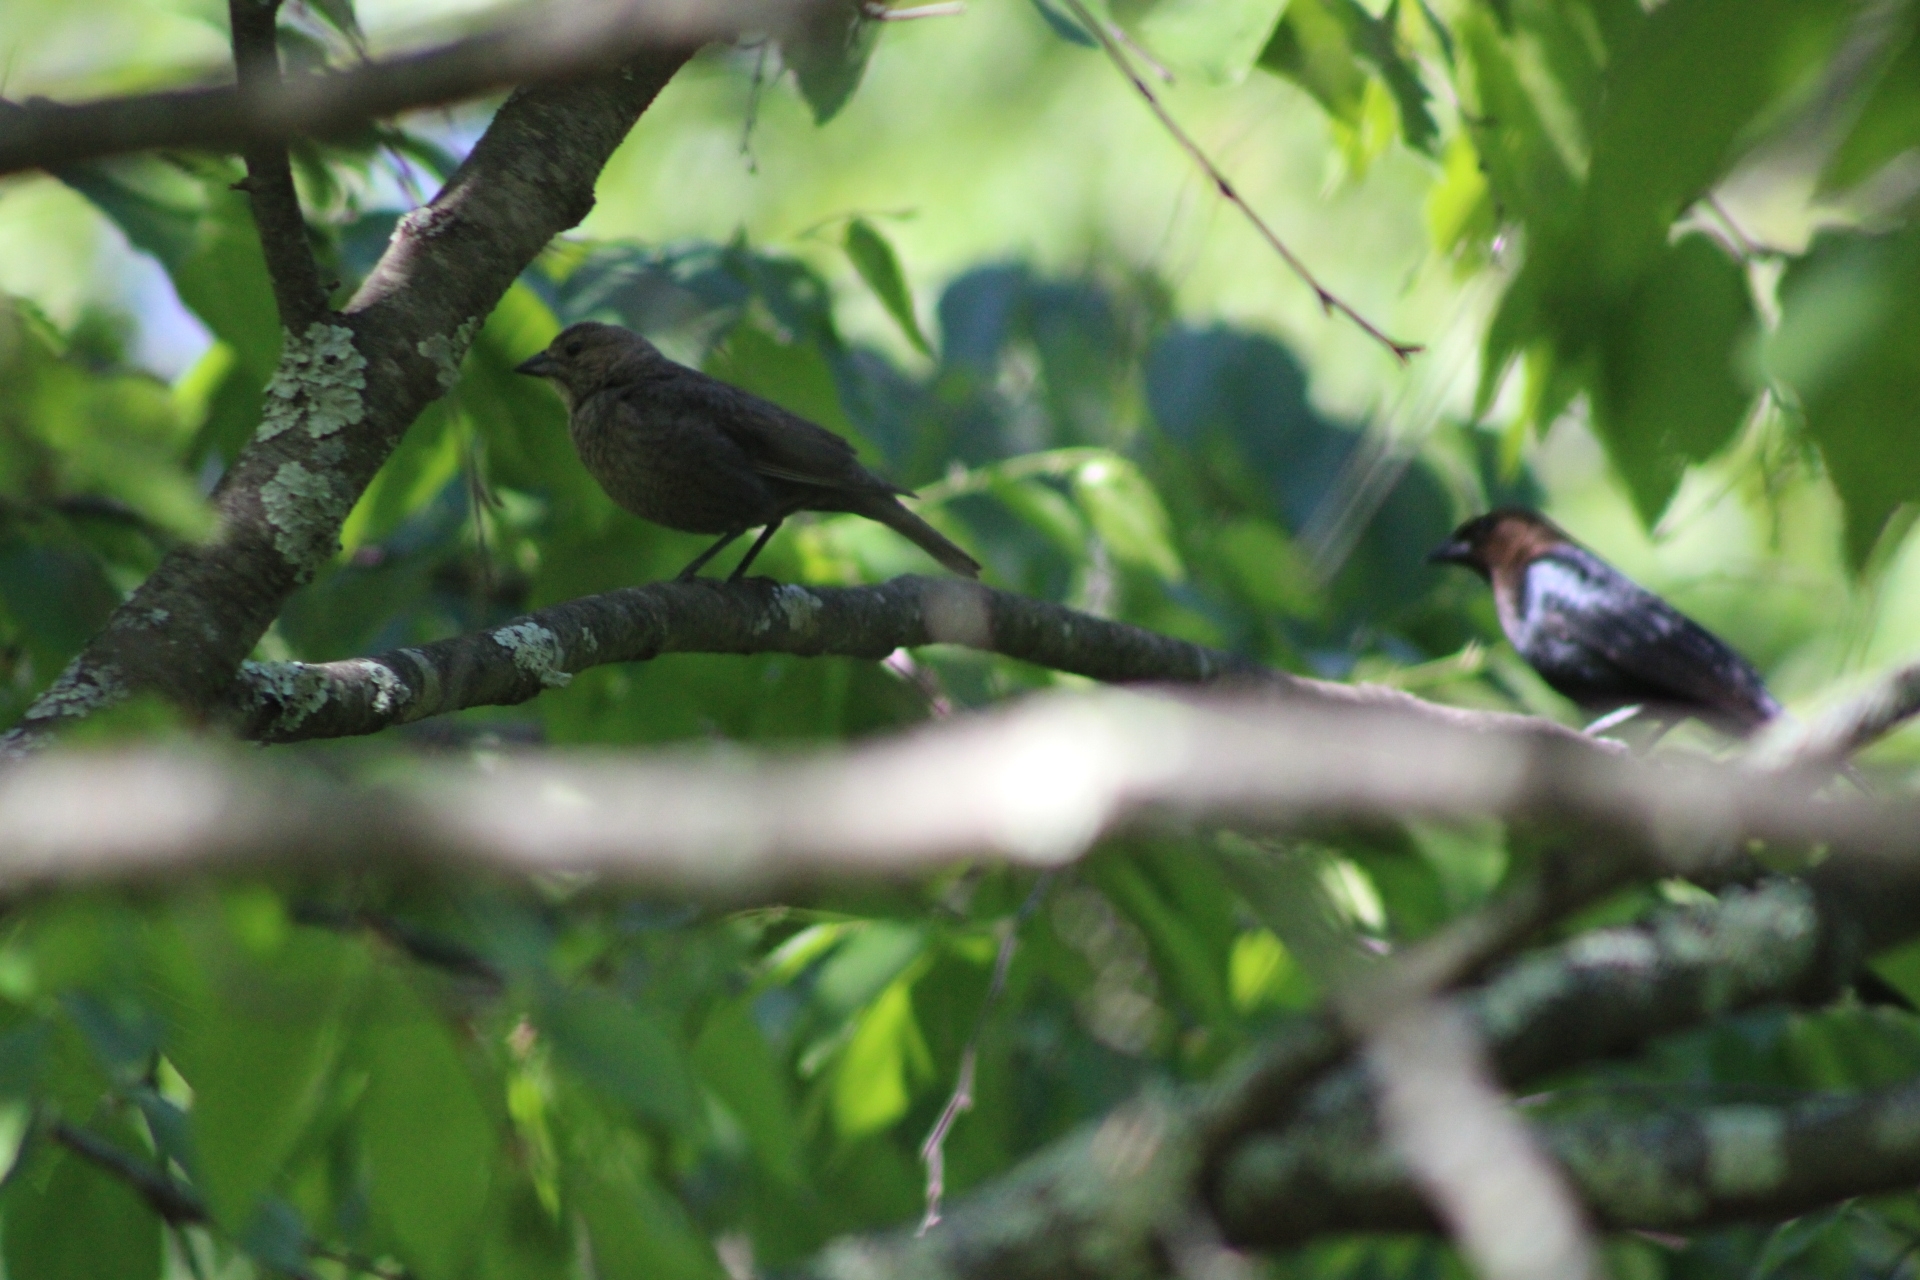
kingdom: Animalia
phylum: Chordata
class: Aves
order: Passeriformes
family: Icteridae
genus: Molothrus
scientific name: Molothrus ater
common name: Brown-headed cowbird
